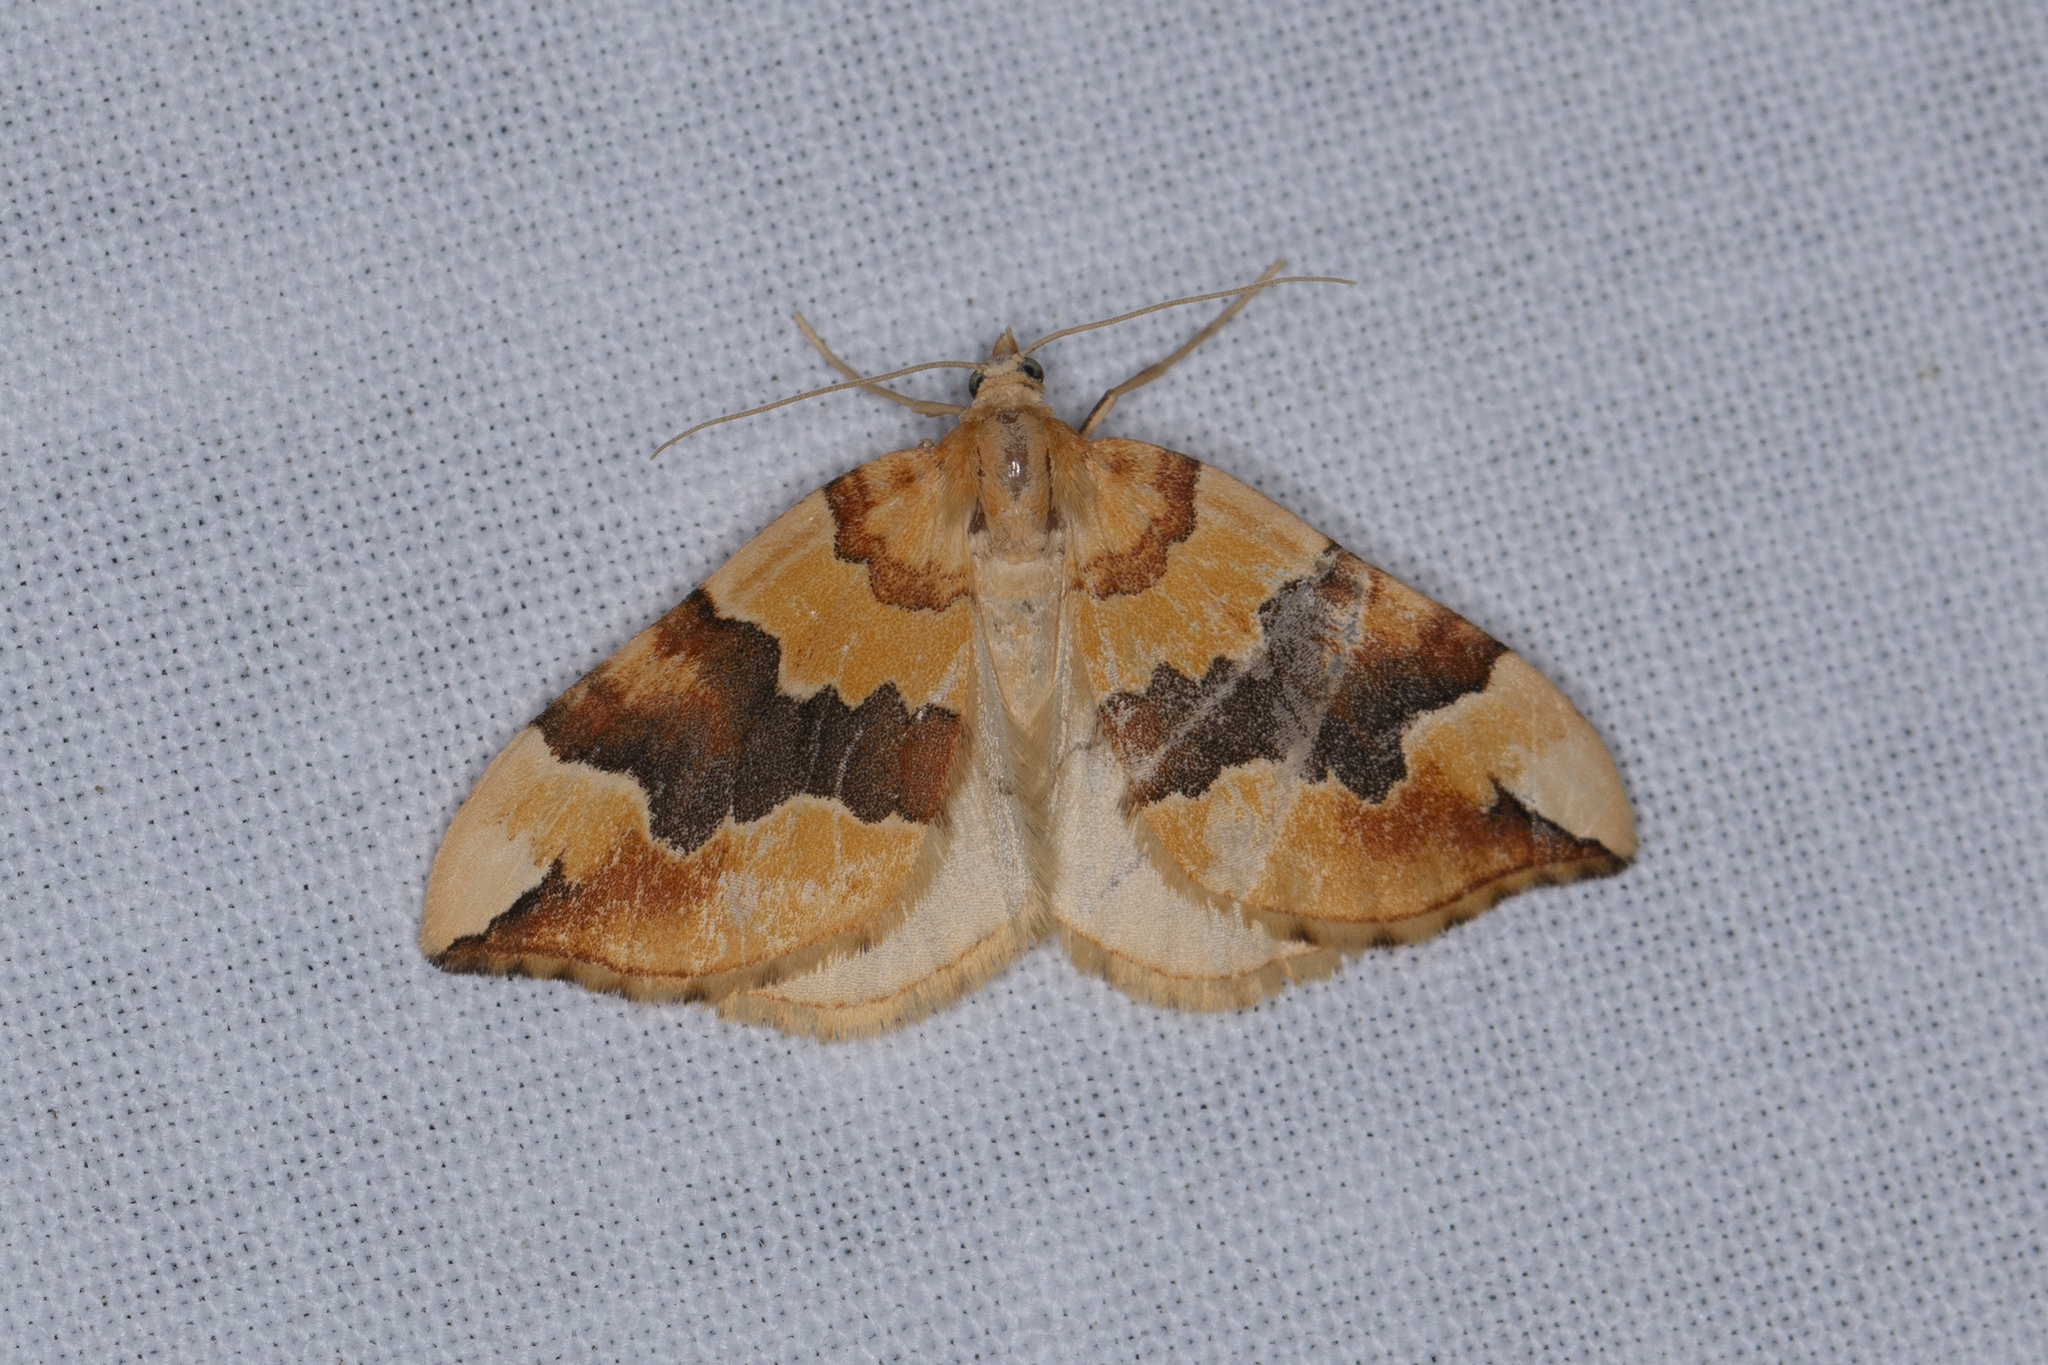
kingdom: Animalia
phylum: Arthropoda
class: Insecta
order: Lepidoptera
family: Geometridae
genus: Cidaria
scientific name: Cidaria fulvata
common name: Barred yellow
